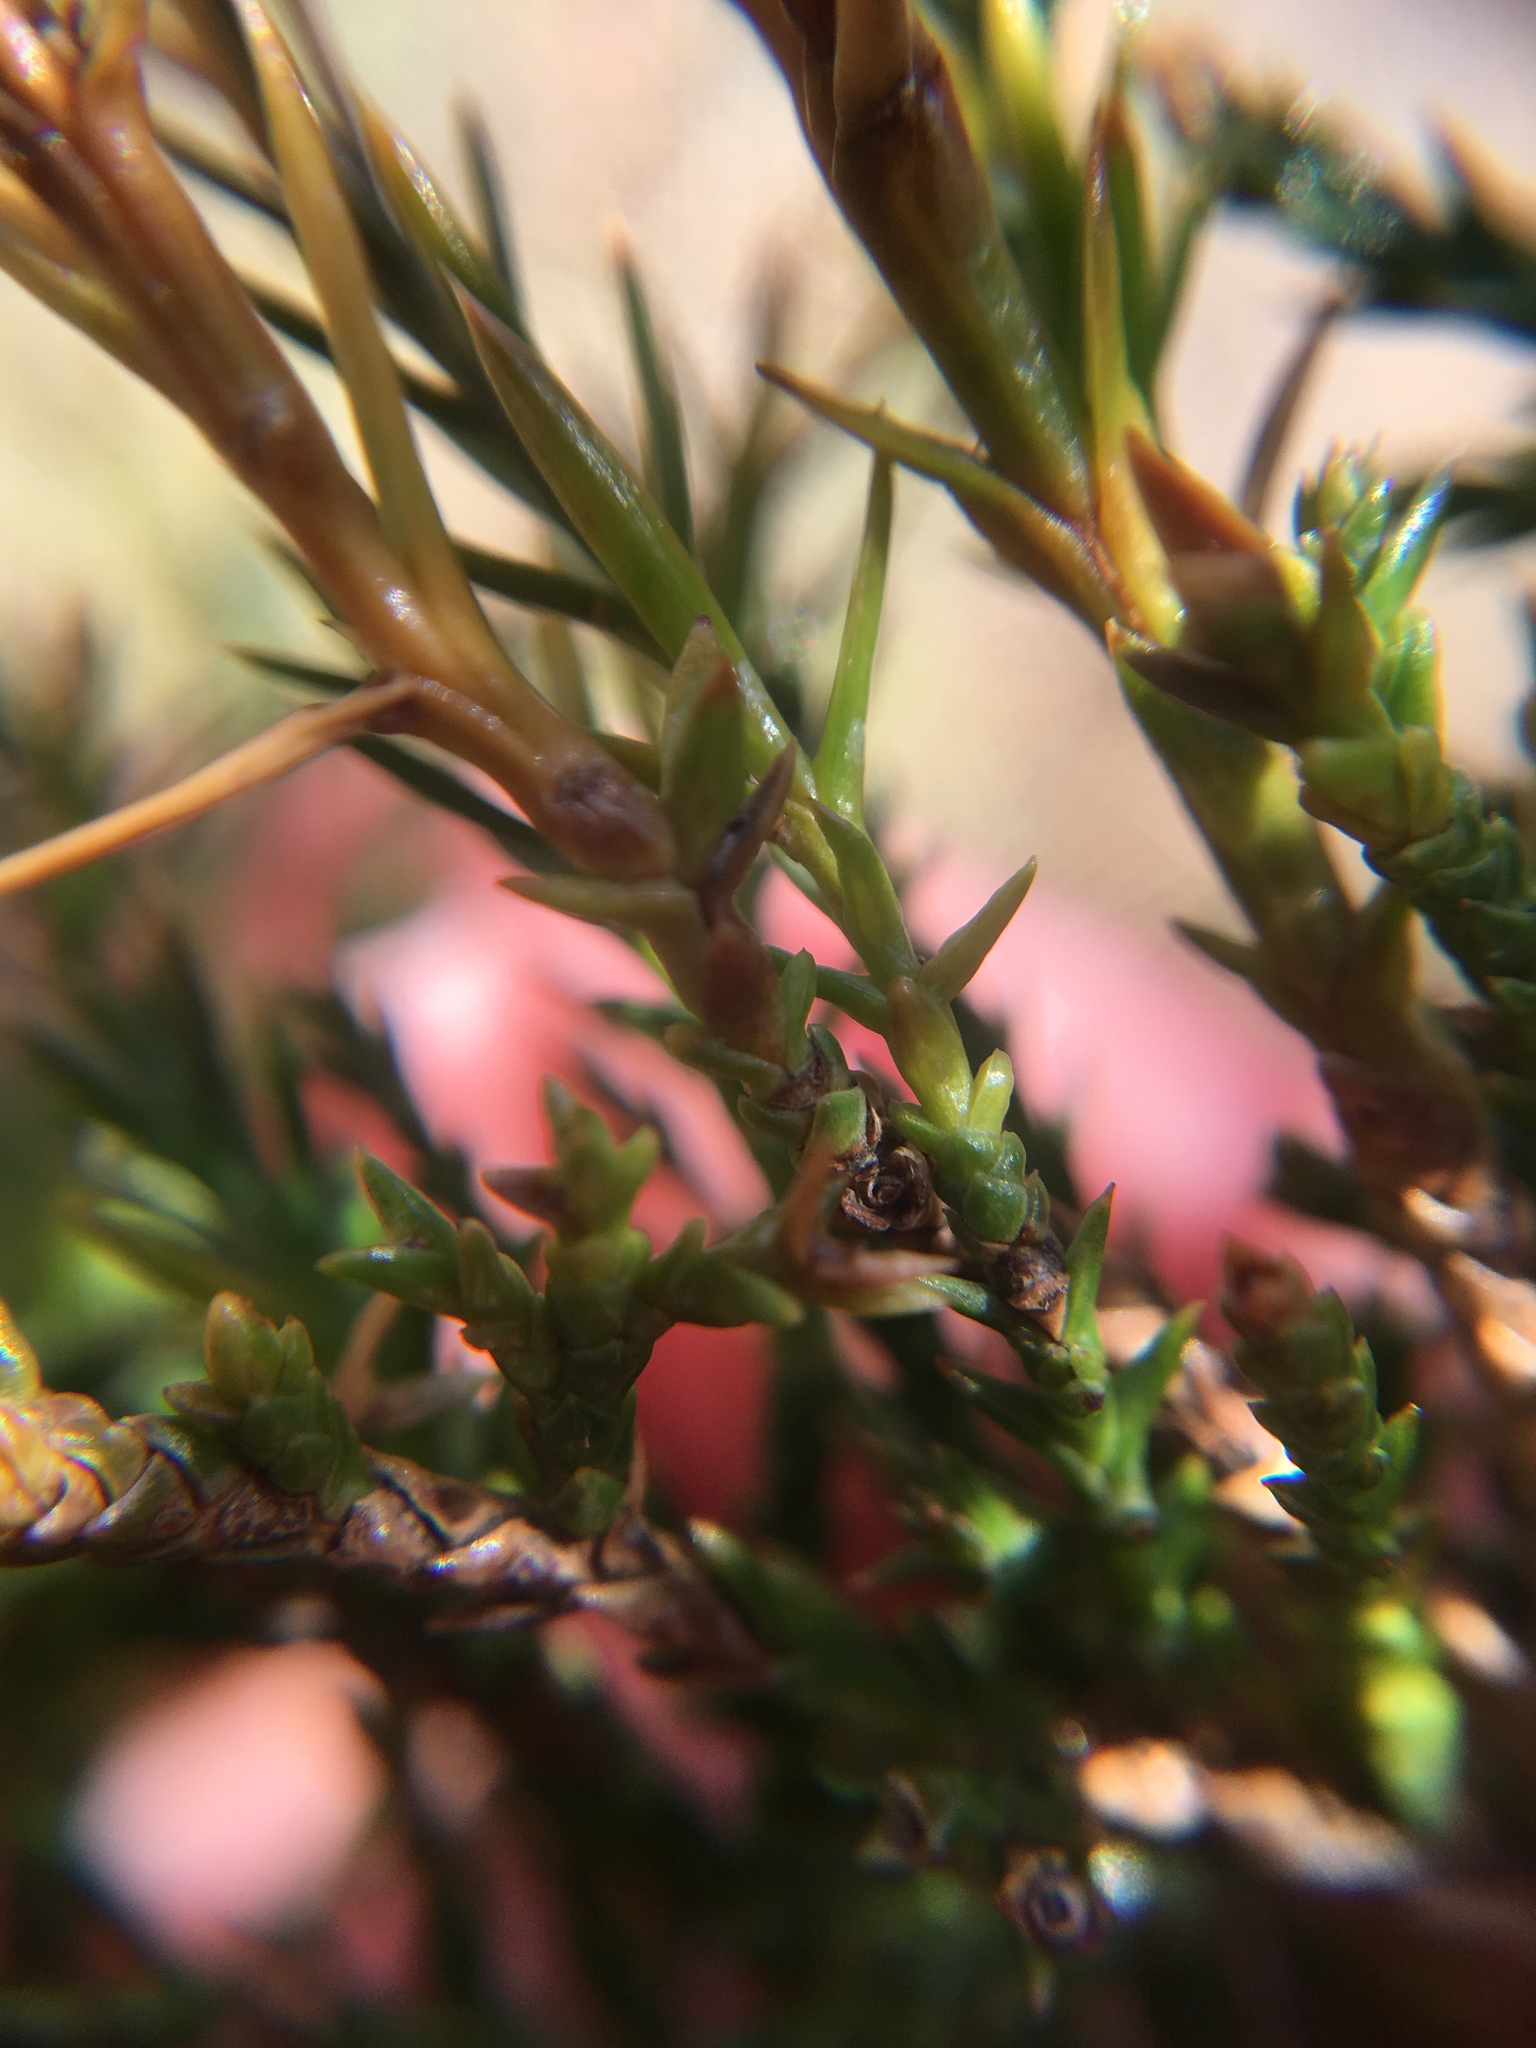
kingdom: Plantae
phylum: Tracheophyta
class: Pinopsida
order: Pinales
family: Cupressaceae
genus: Juniperus
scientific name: Juniperus virginiana
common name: Red juniper
